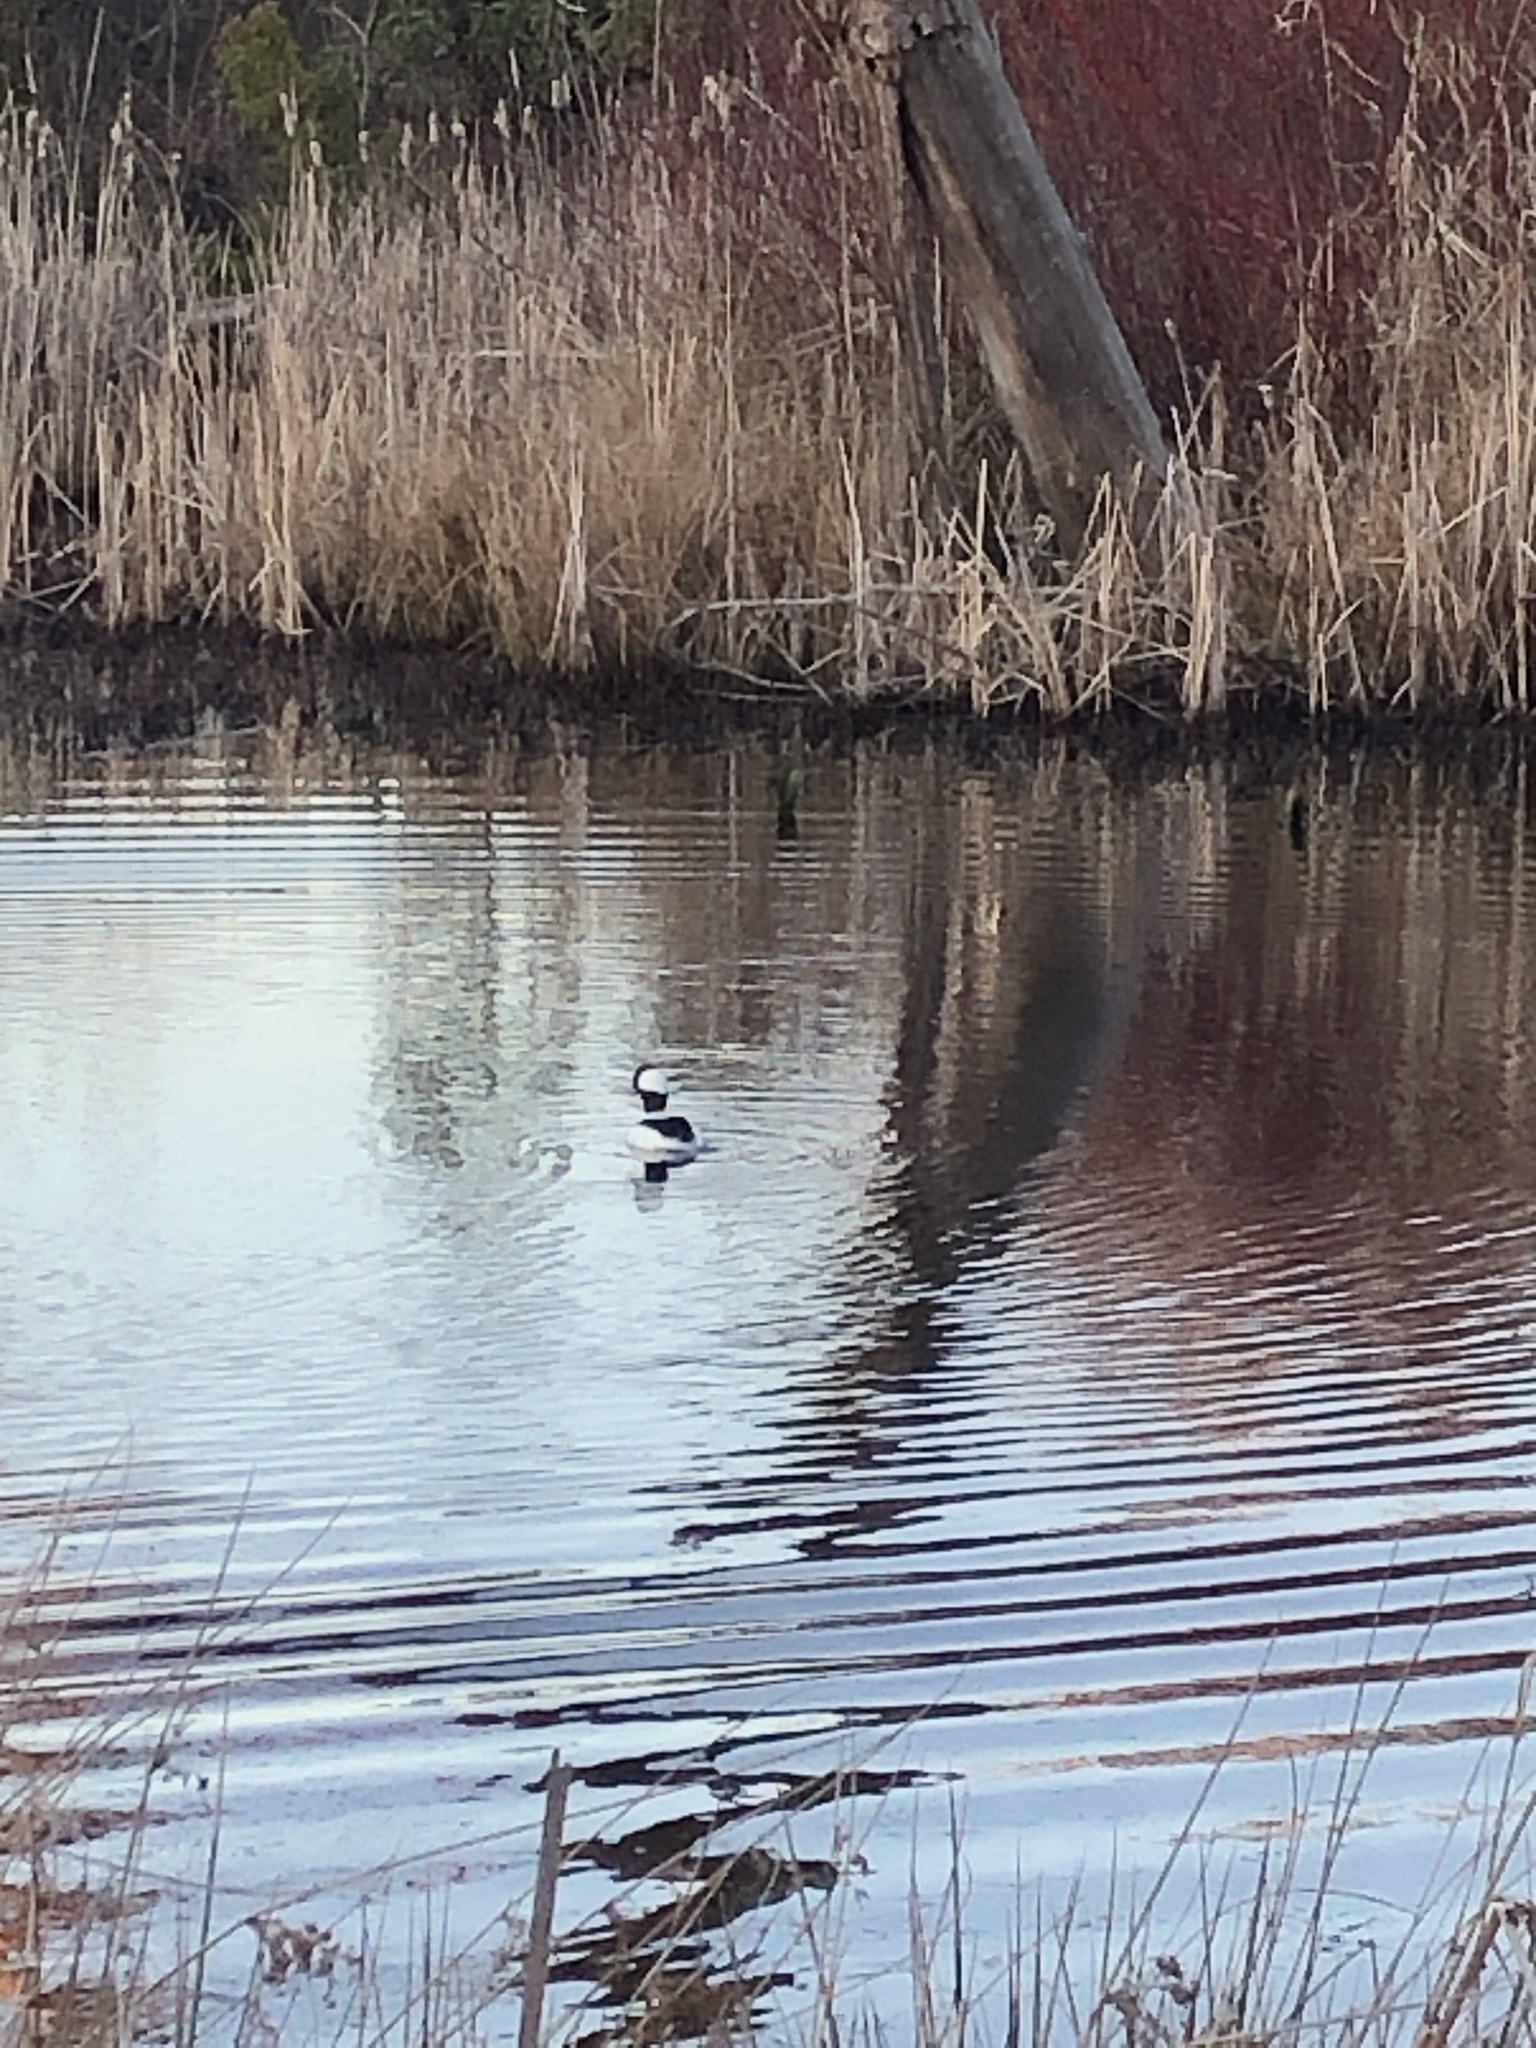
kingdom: Animalia
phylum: Chordata
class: Aves
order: Anseriformes
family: Anatidae
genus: Bucephala
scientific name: Bucephala albeola
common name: Bufflehead
